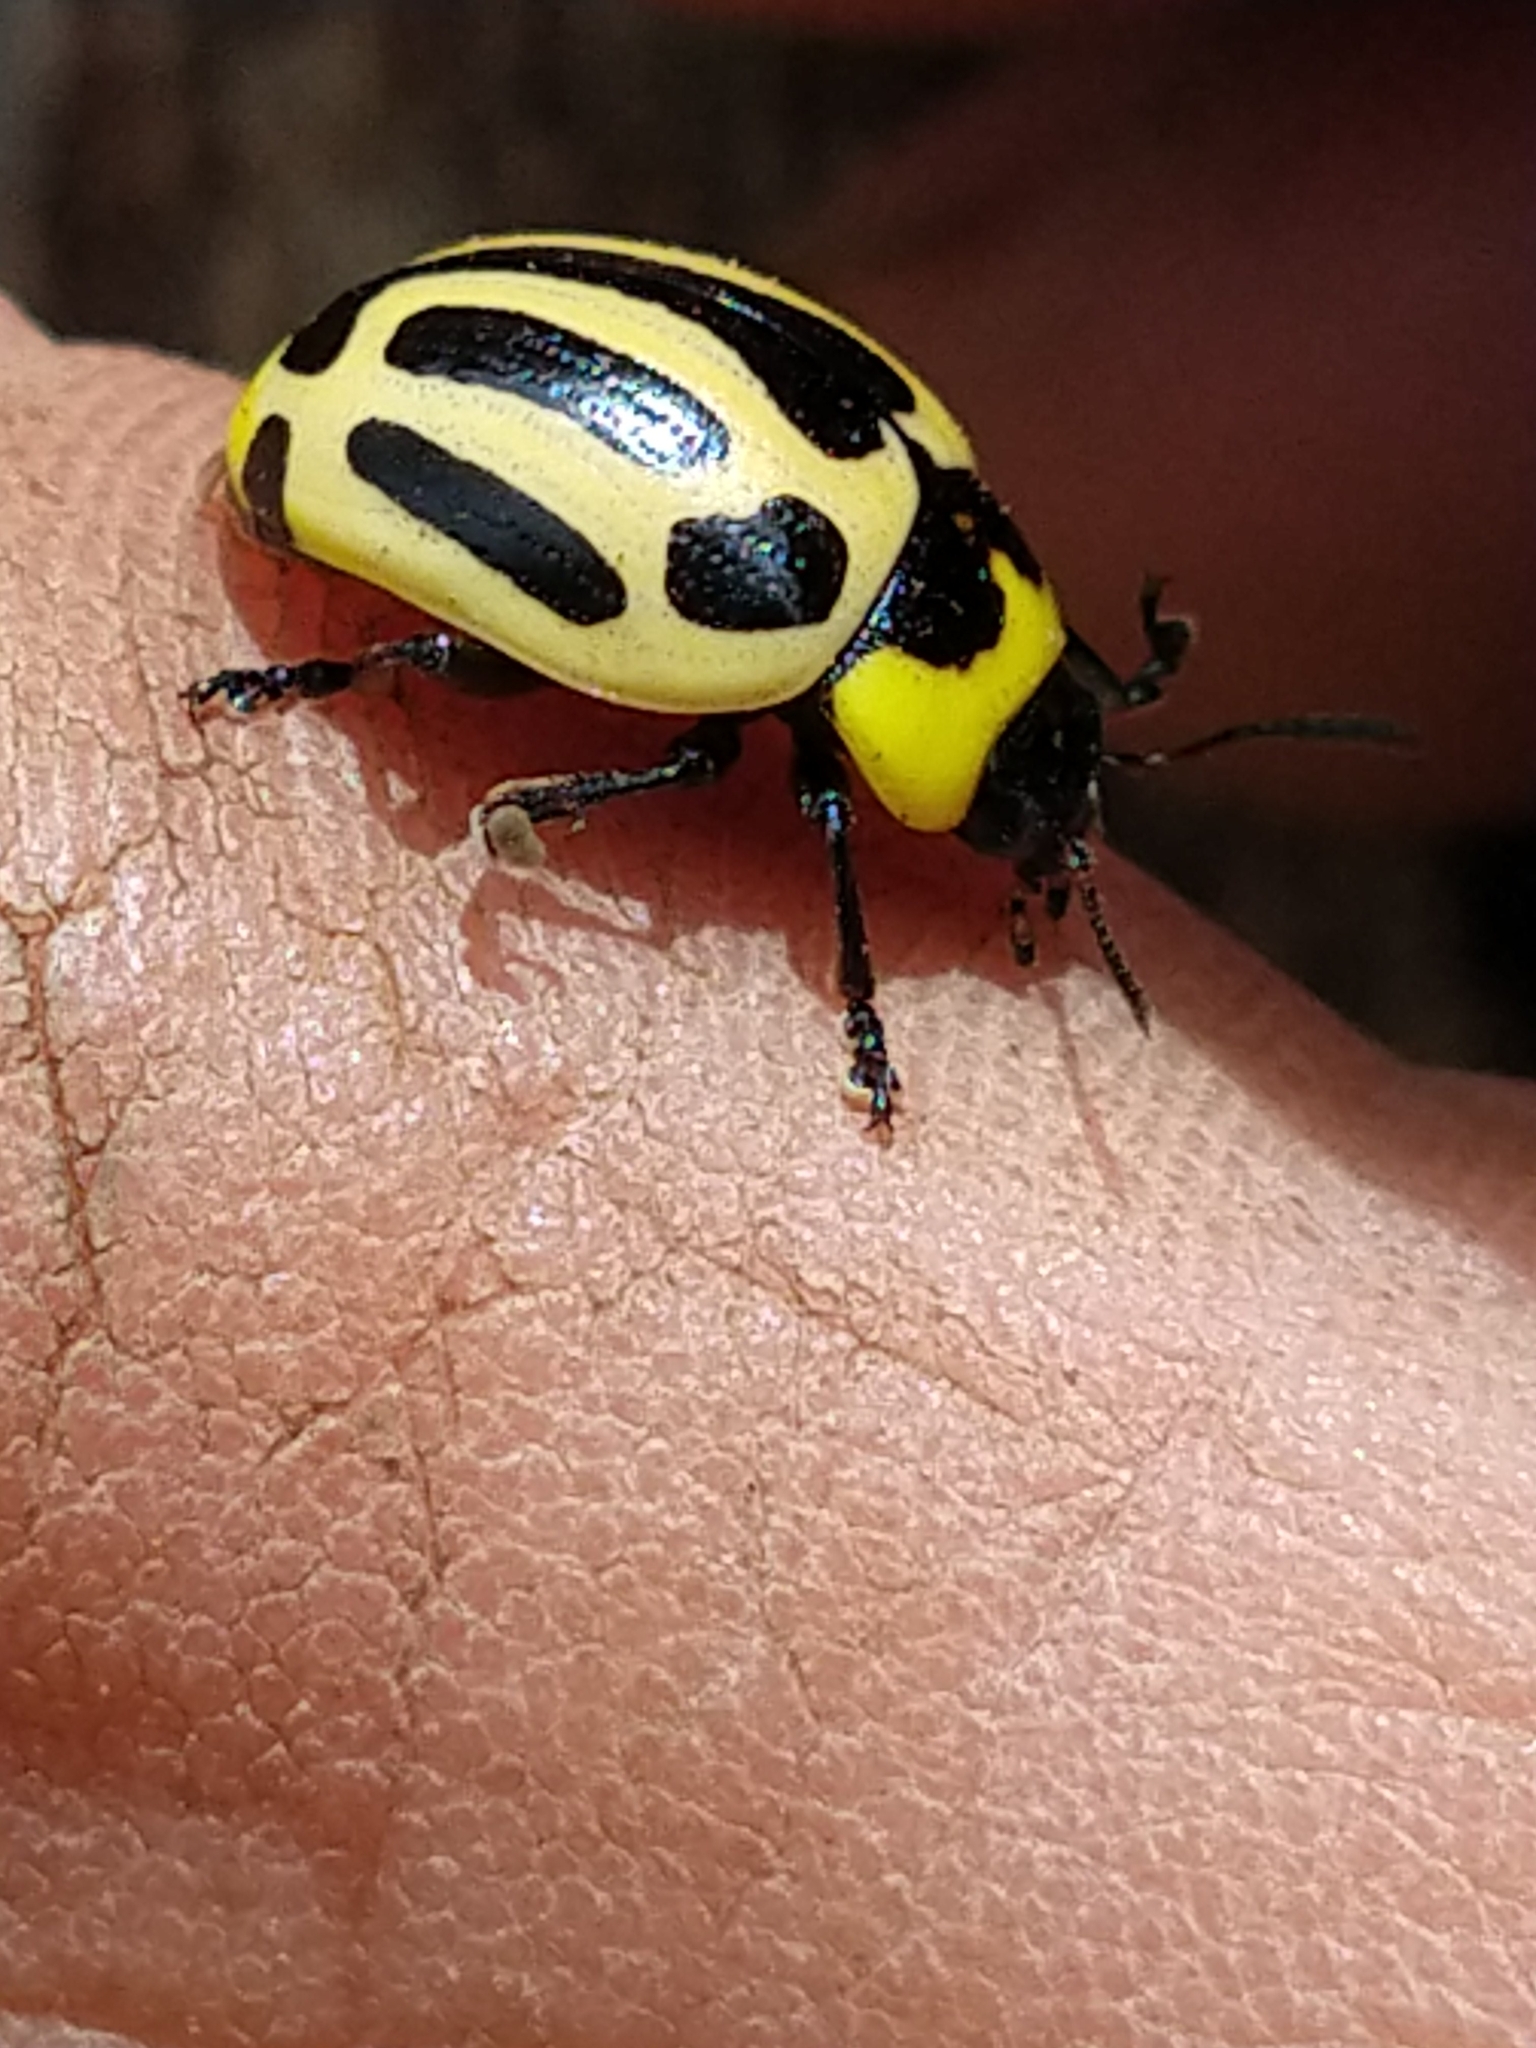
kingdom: Animalia
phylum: Arthropoda
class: Insecta
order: Coleoptera
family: Chrysomelidae
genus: Deuterocampta
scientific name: Deuterocampta
